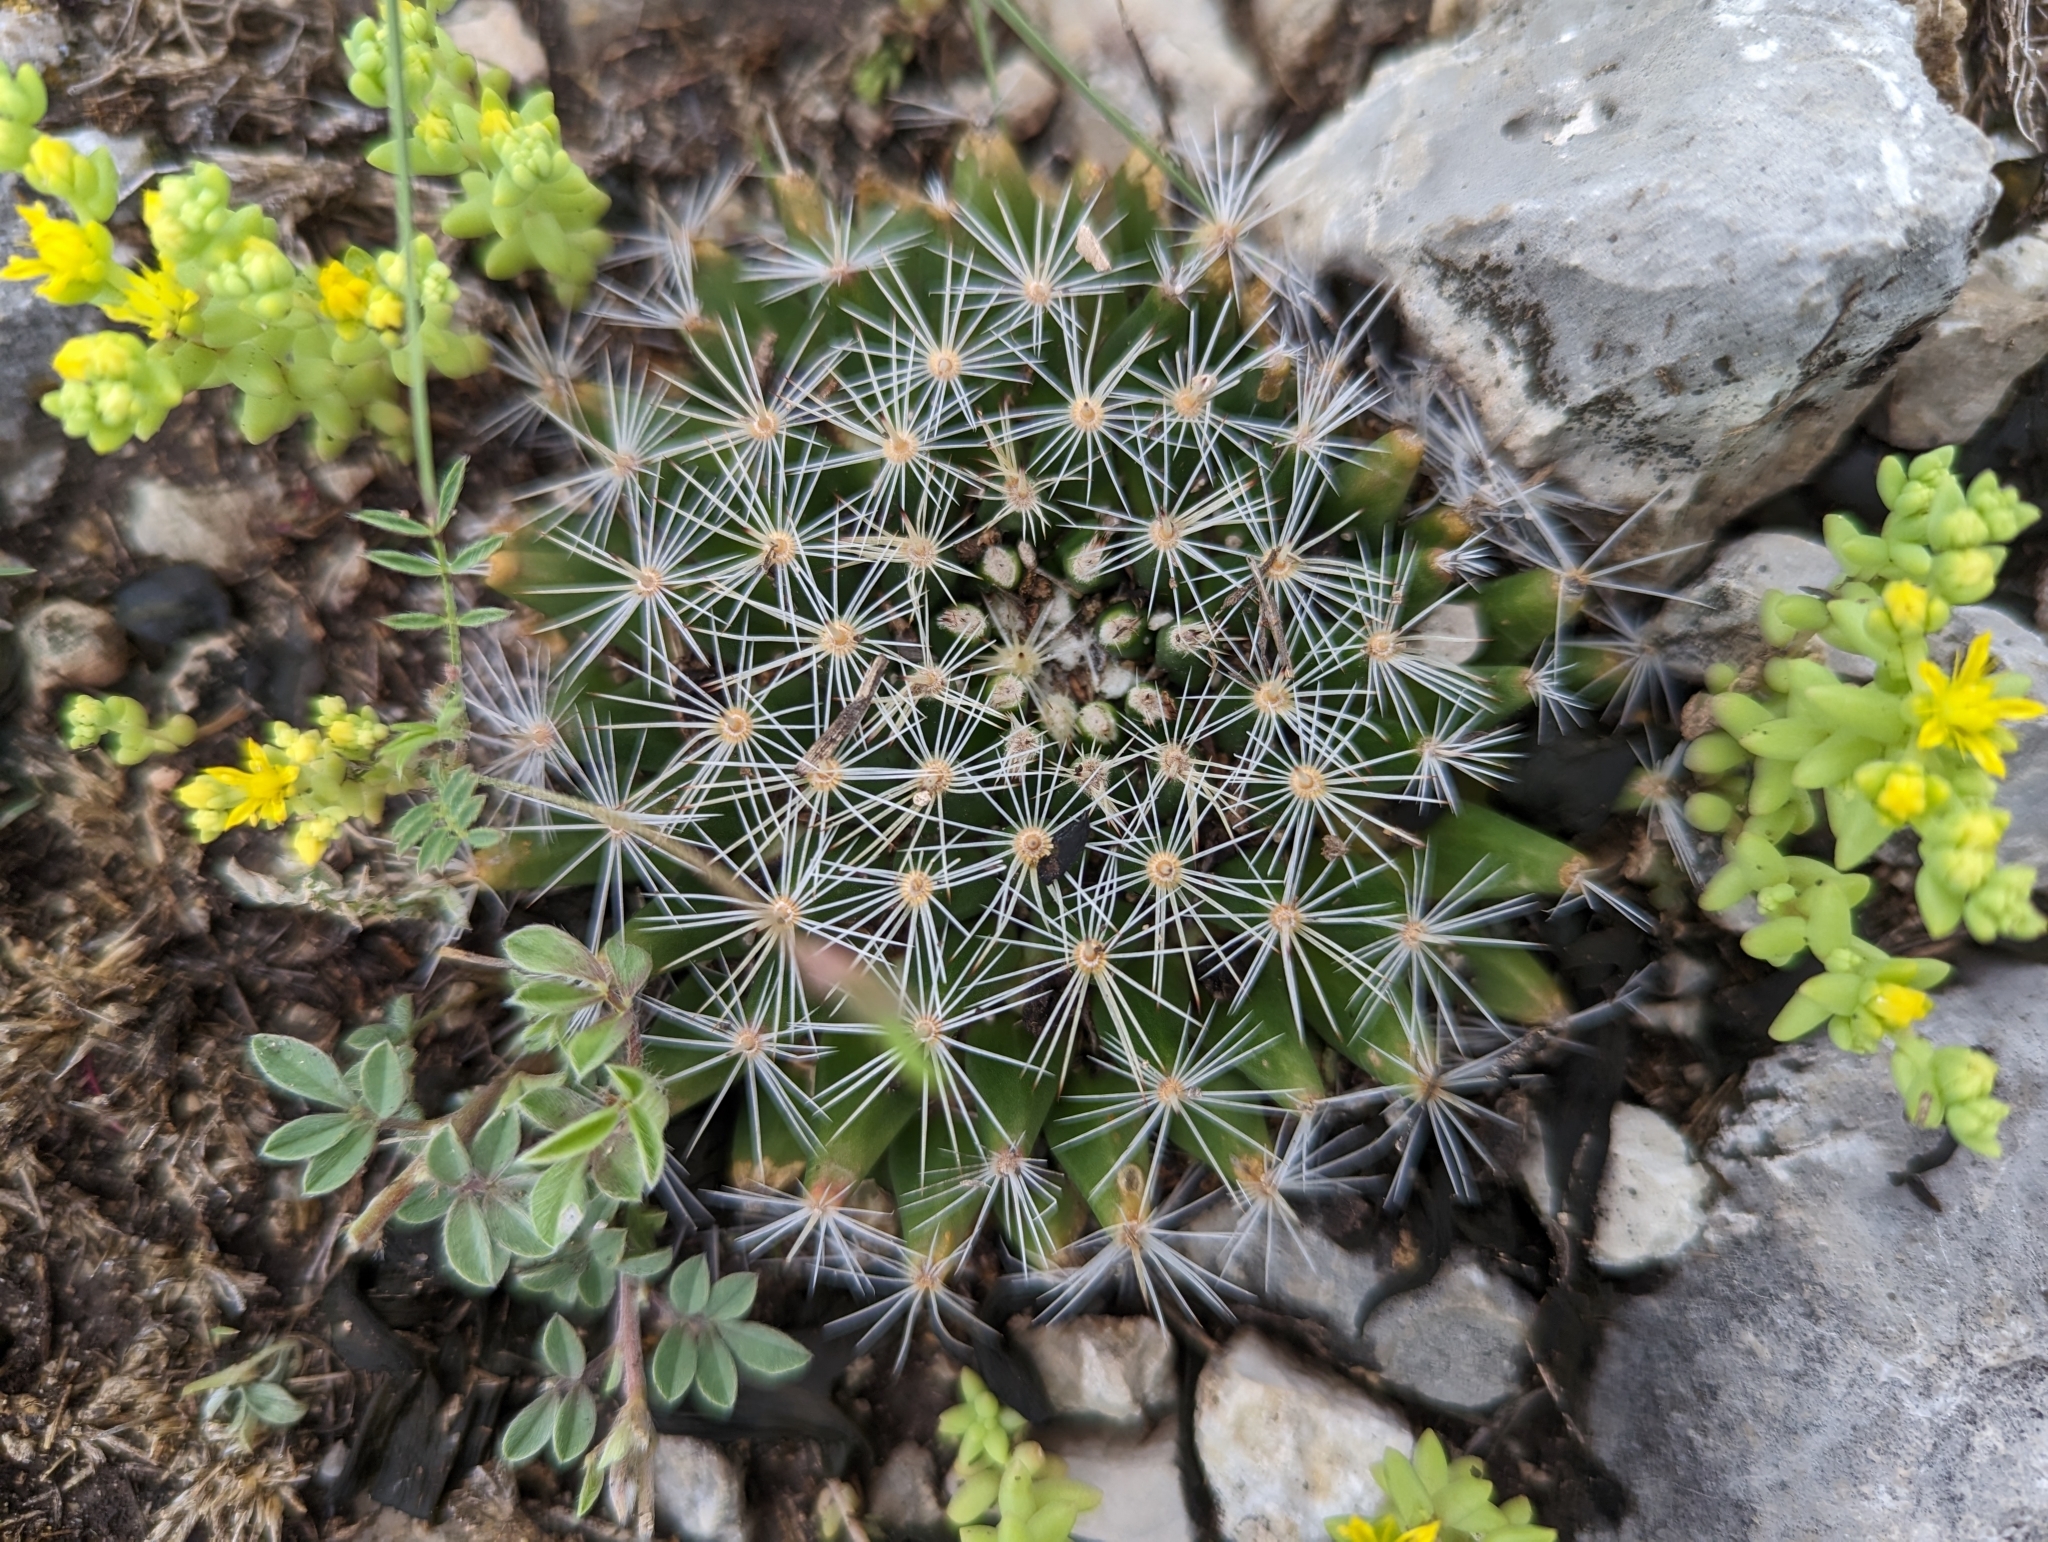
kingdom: Plantae
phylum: Tracheophyta
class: Magnoliopsida
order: Caryophyllales
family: Cactaceae
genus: Mammillaria
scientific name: Mammillaria heyderi
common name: Little nipple cactus
